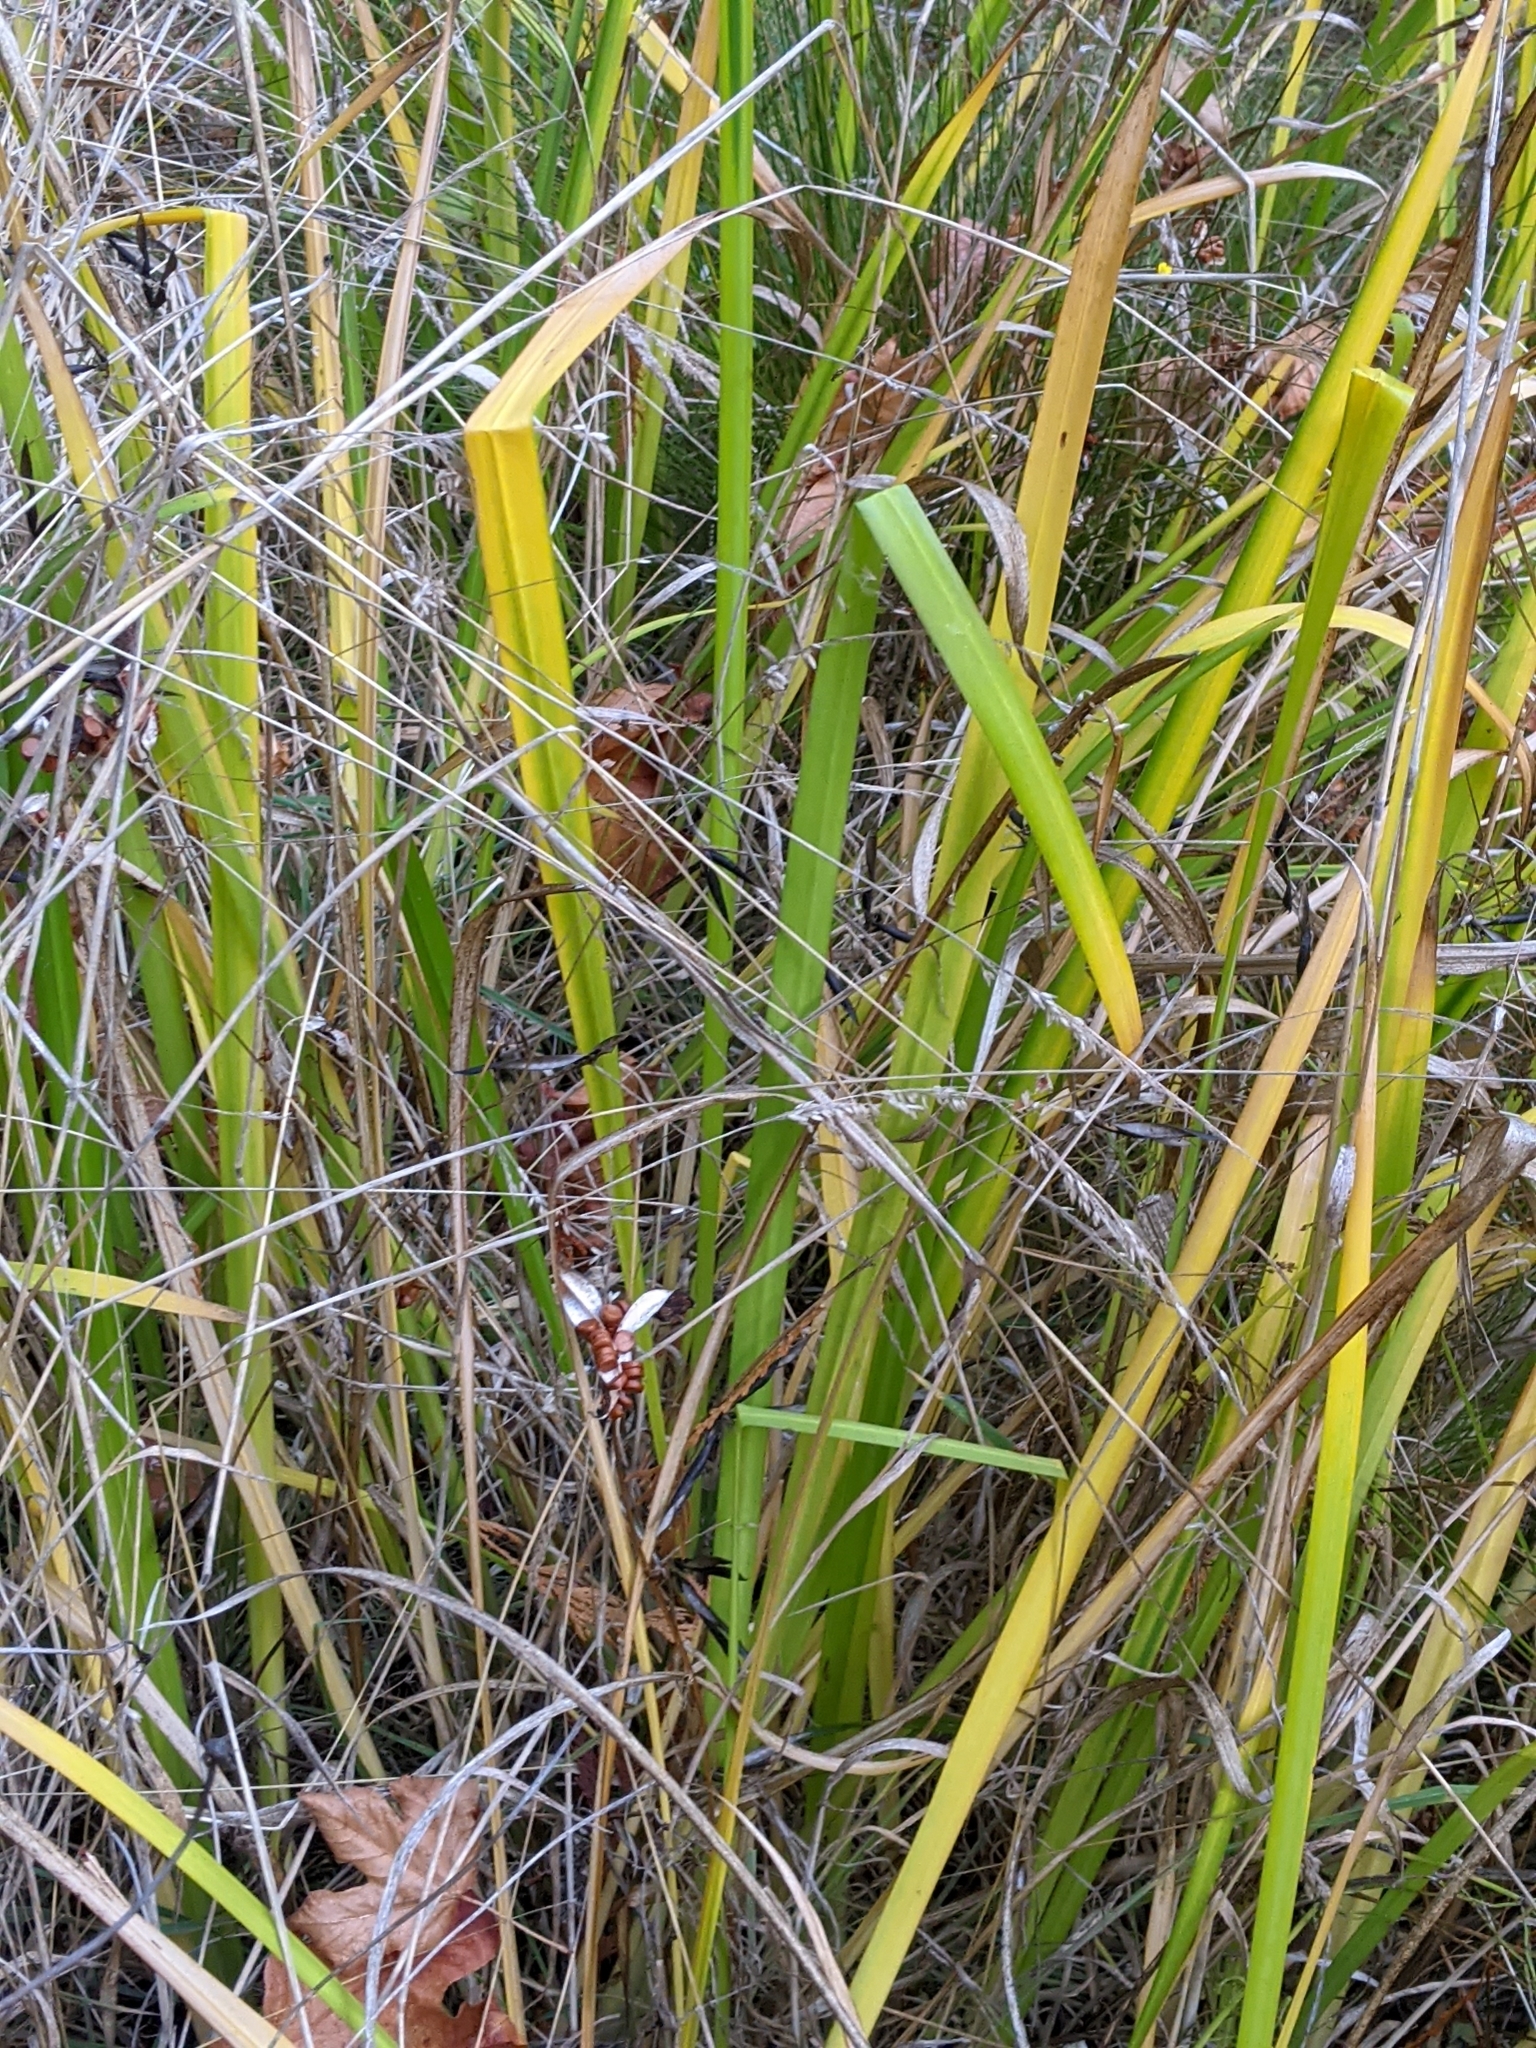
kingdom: Plantae
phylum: Tracheophyta
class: Liliopsida
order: Asparagales
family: Iridaceae
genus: Iris
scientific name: Iris pseudacorus
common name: Yellow flag
